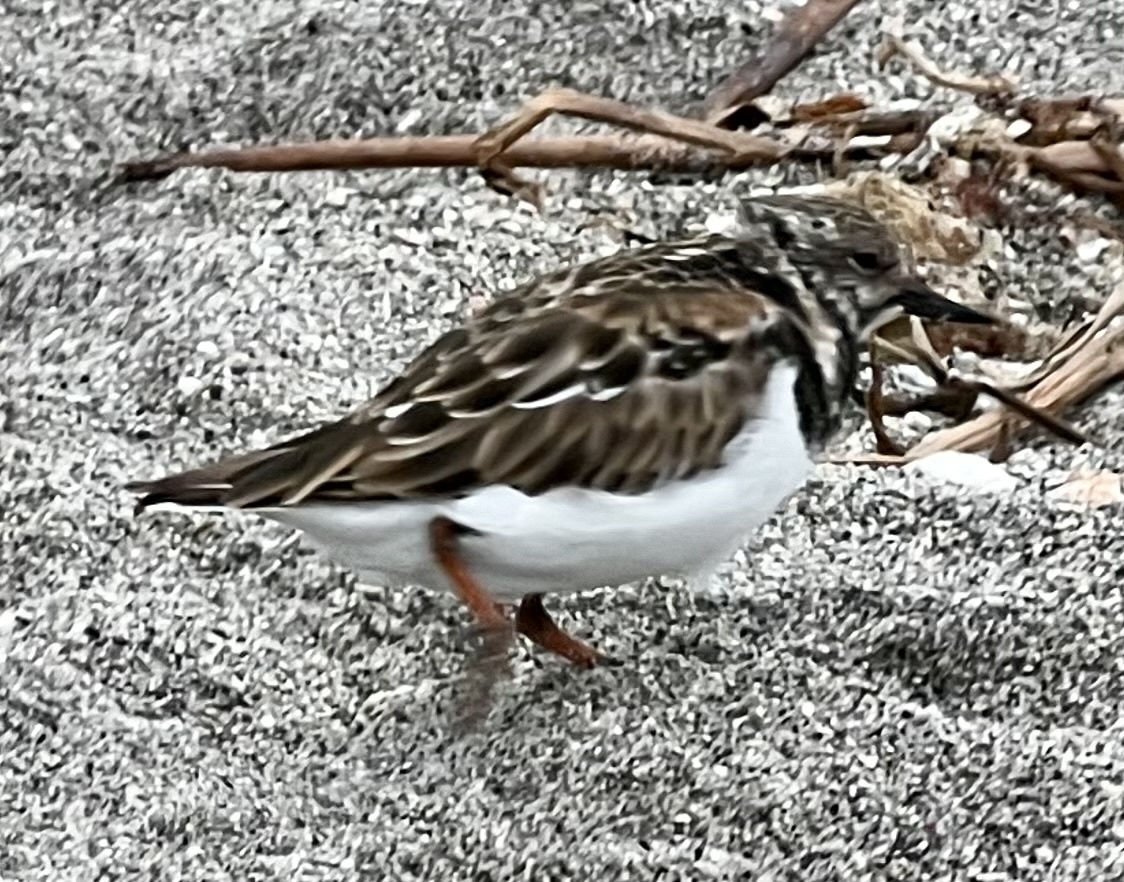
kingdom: Animalia
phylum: Chordata
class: Aves
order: Charadriiformes
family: Scolopacidae
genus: Arenaria
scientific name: Arenaria interpres
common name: Ruddy turnstone
